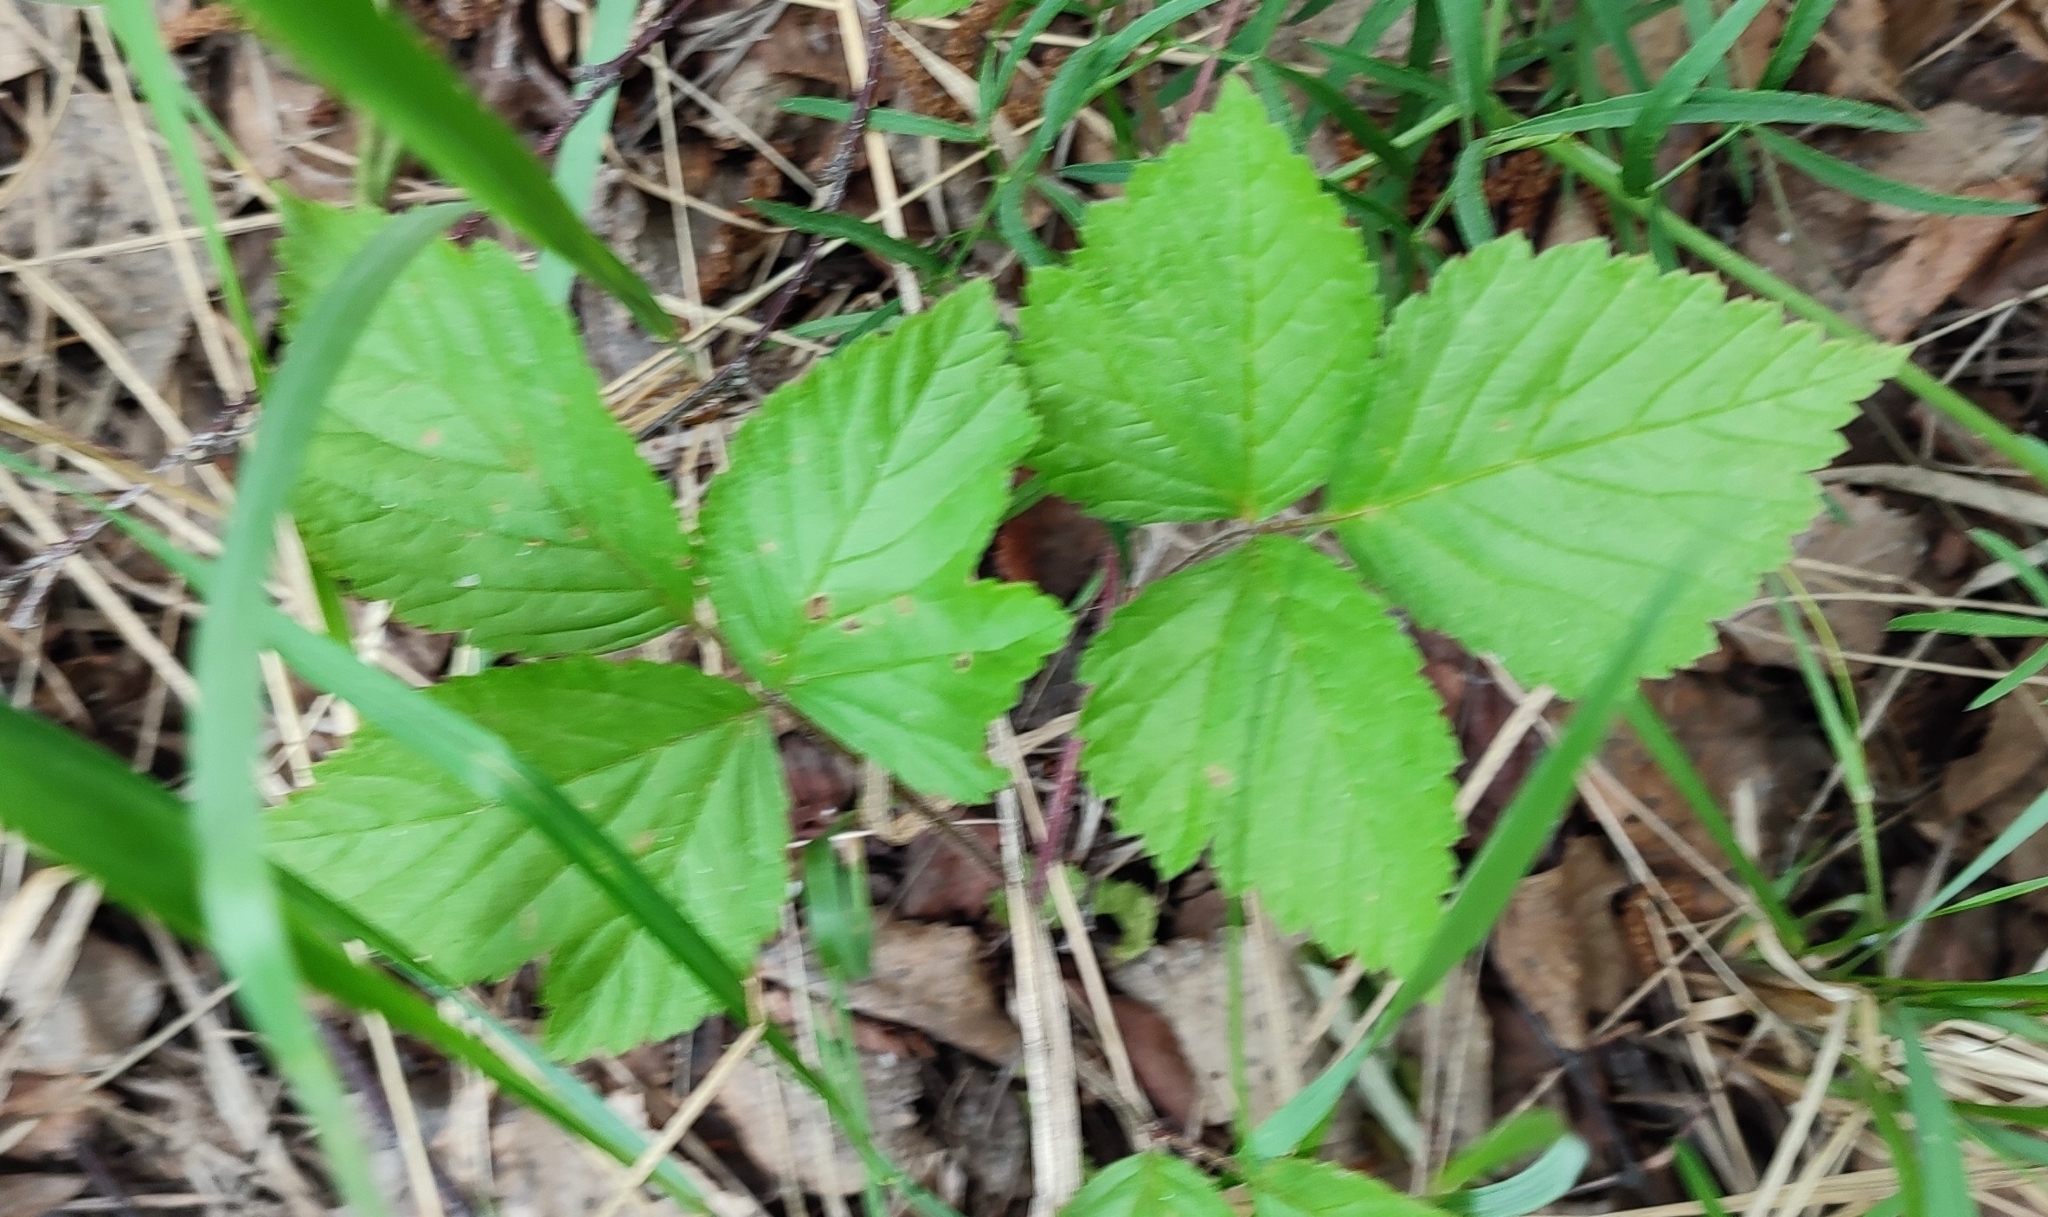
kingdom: Plantae
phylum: Tracheophyta
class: Magnoliopsida
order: Rosales
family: Rosaceae
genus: Rubus
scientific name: Rubus saxatilis
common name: Stone bramble
